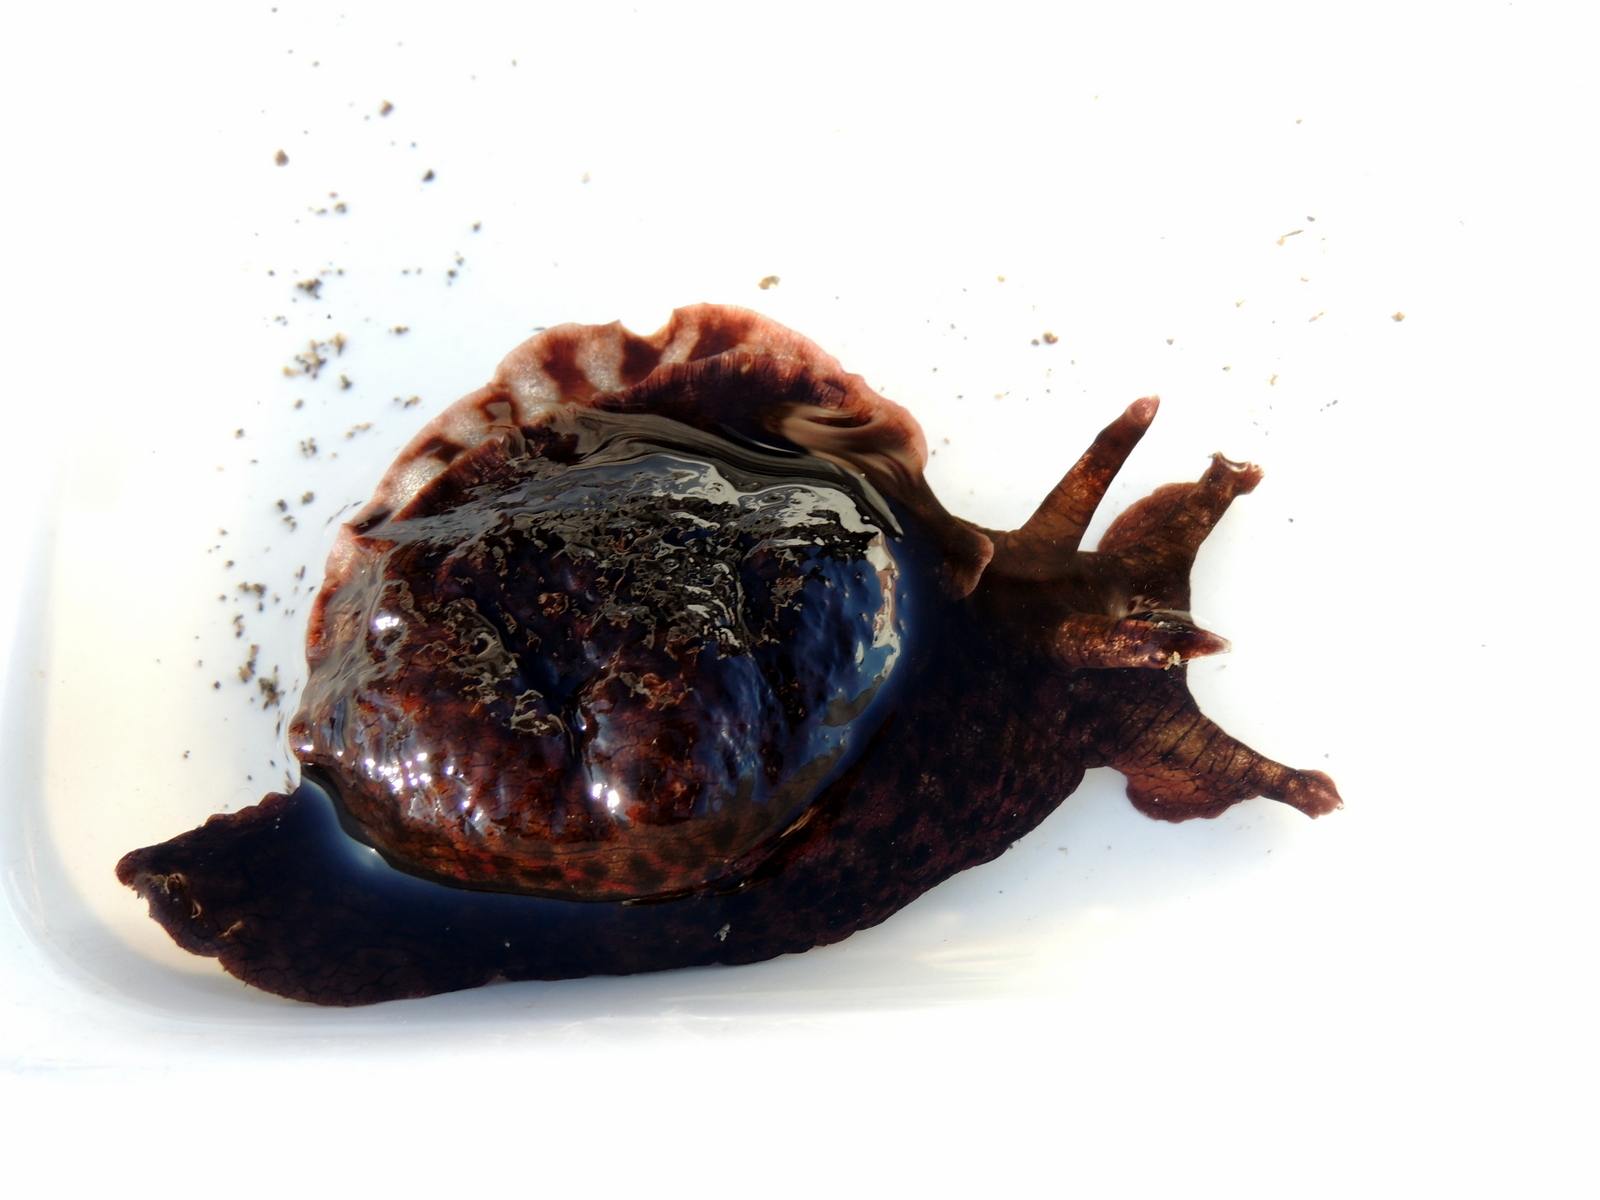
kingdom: Animalia
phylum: Mollusca
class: Gastropoda
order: Aplysiida
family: Aplysiidae
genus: Aplysia
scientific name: Aplysia californica
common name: California seahare
